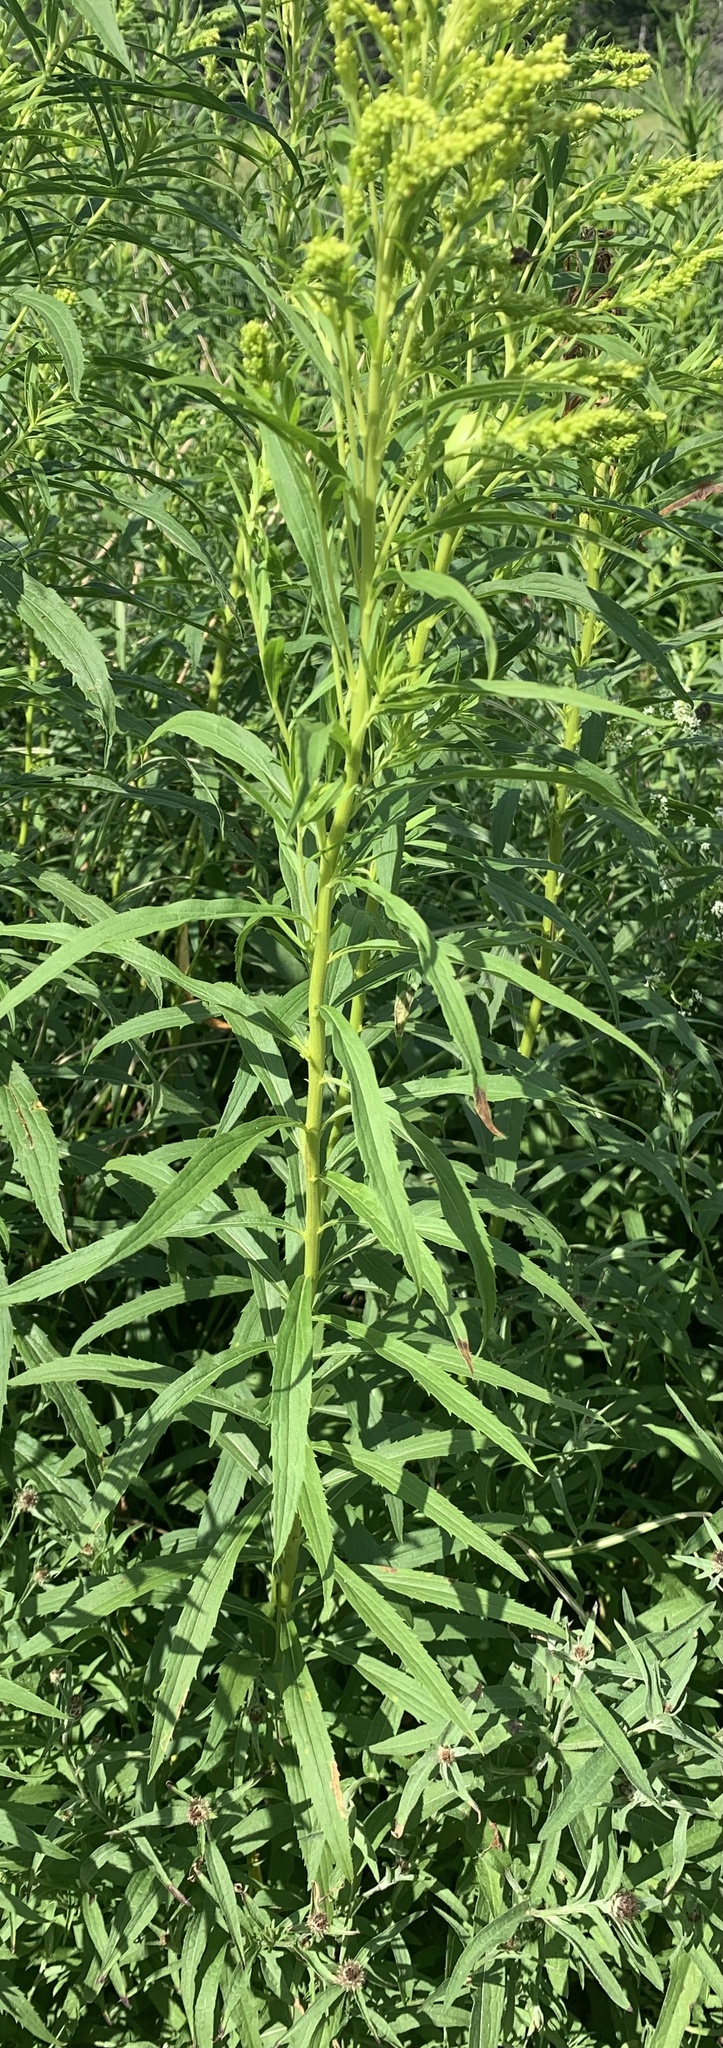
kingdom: Plantae
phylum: Tracheophyta
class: Magnoliopsida
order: Asterales
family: Asteraceae
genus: Solidago
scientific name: Solidago canadensis
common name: Canada goldenrod
